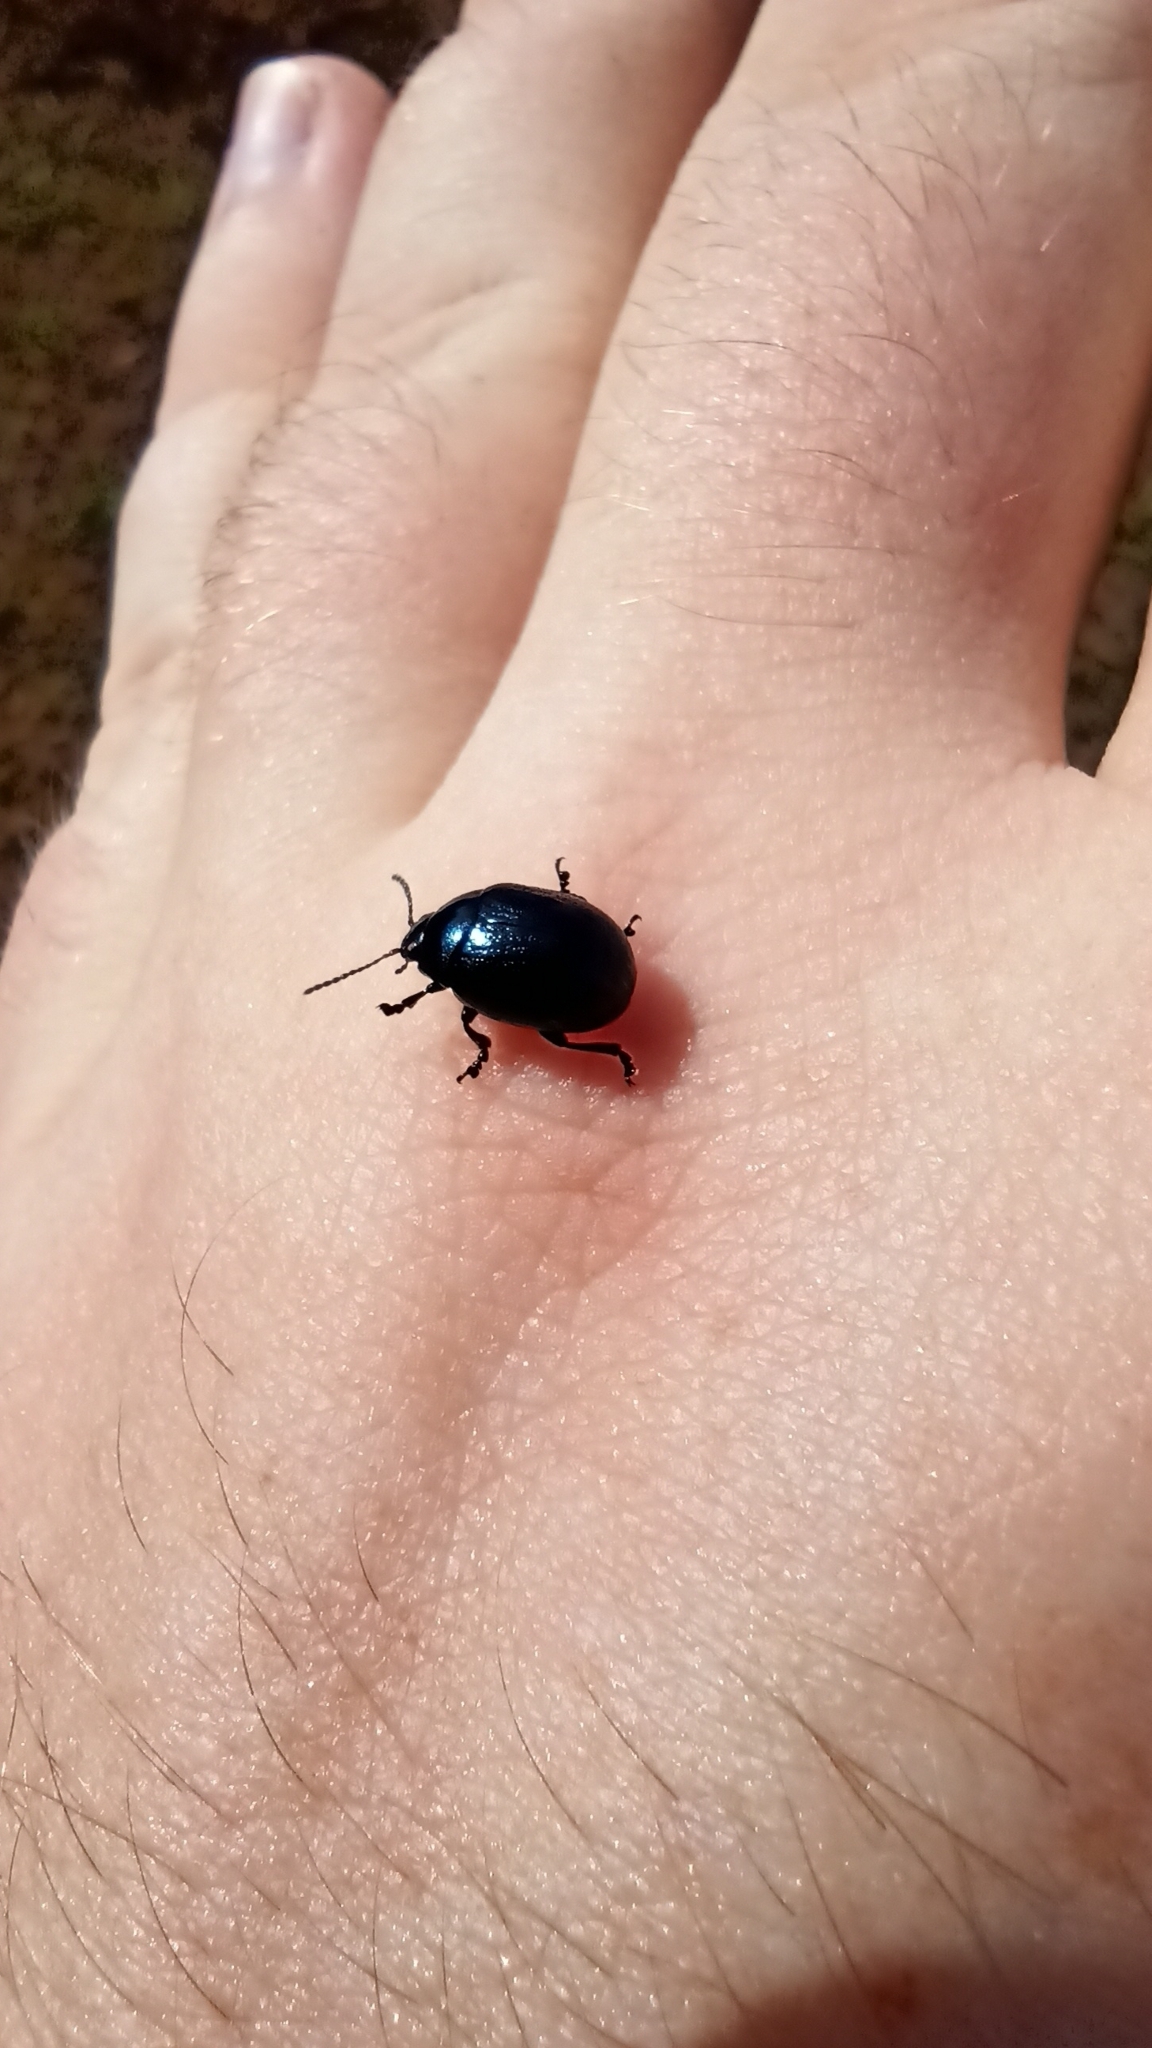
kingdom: Animalia
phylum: Arthropoda
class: Insecta
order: Coleoptera
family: Chrysomelidae
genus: Chrysolina
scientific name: Chrysolina haemoptera
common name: Plantain leaf beetle
